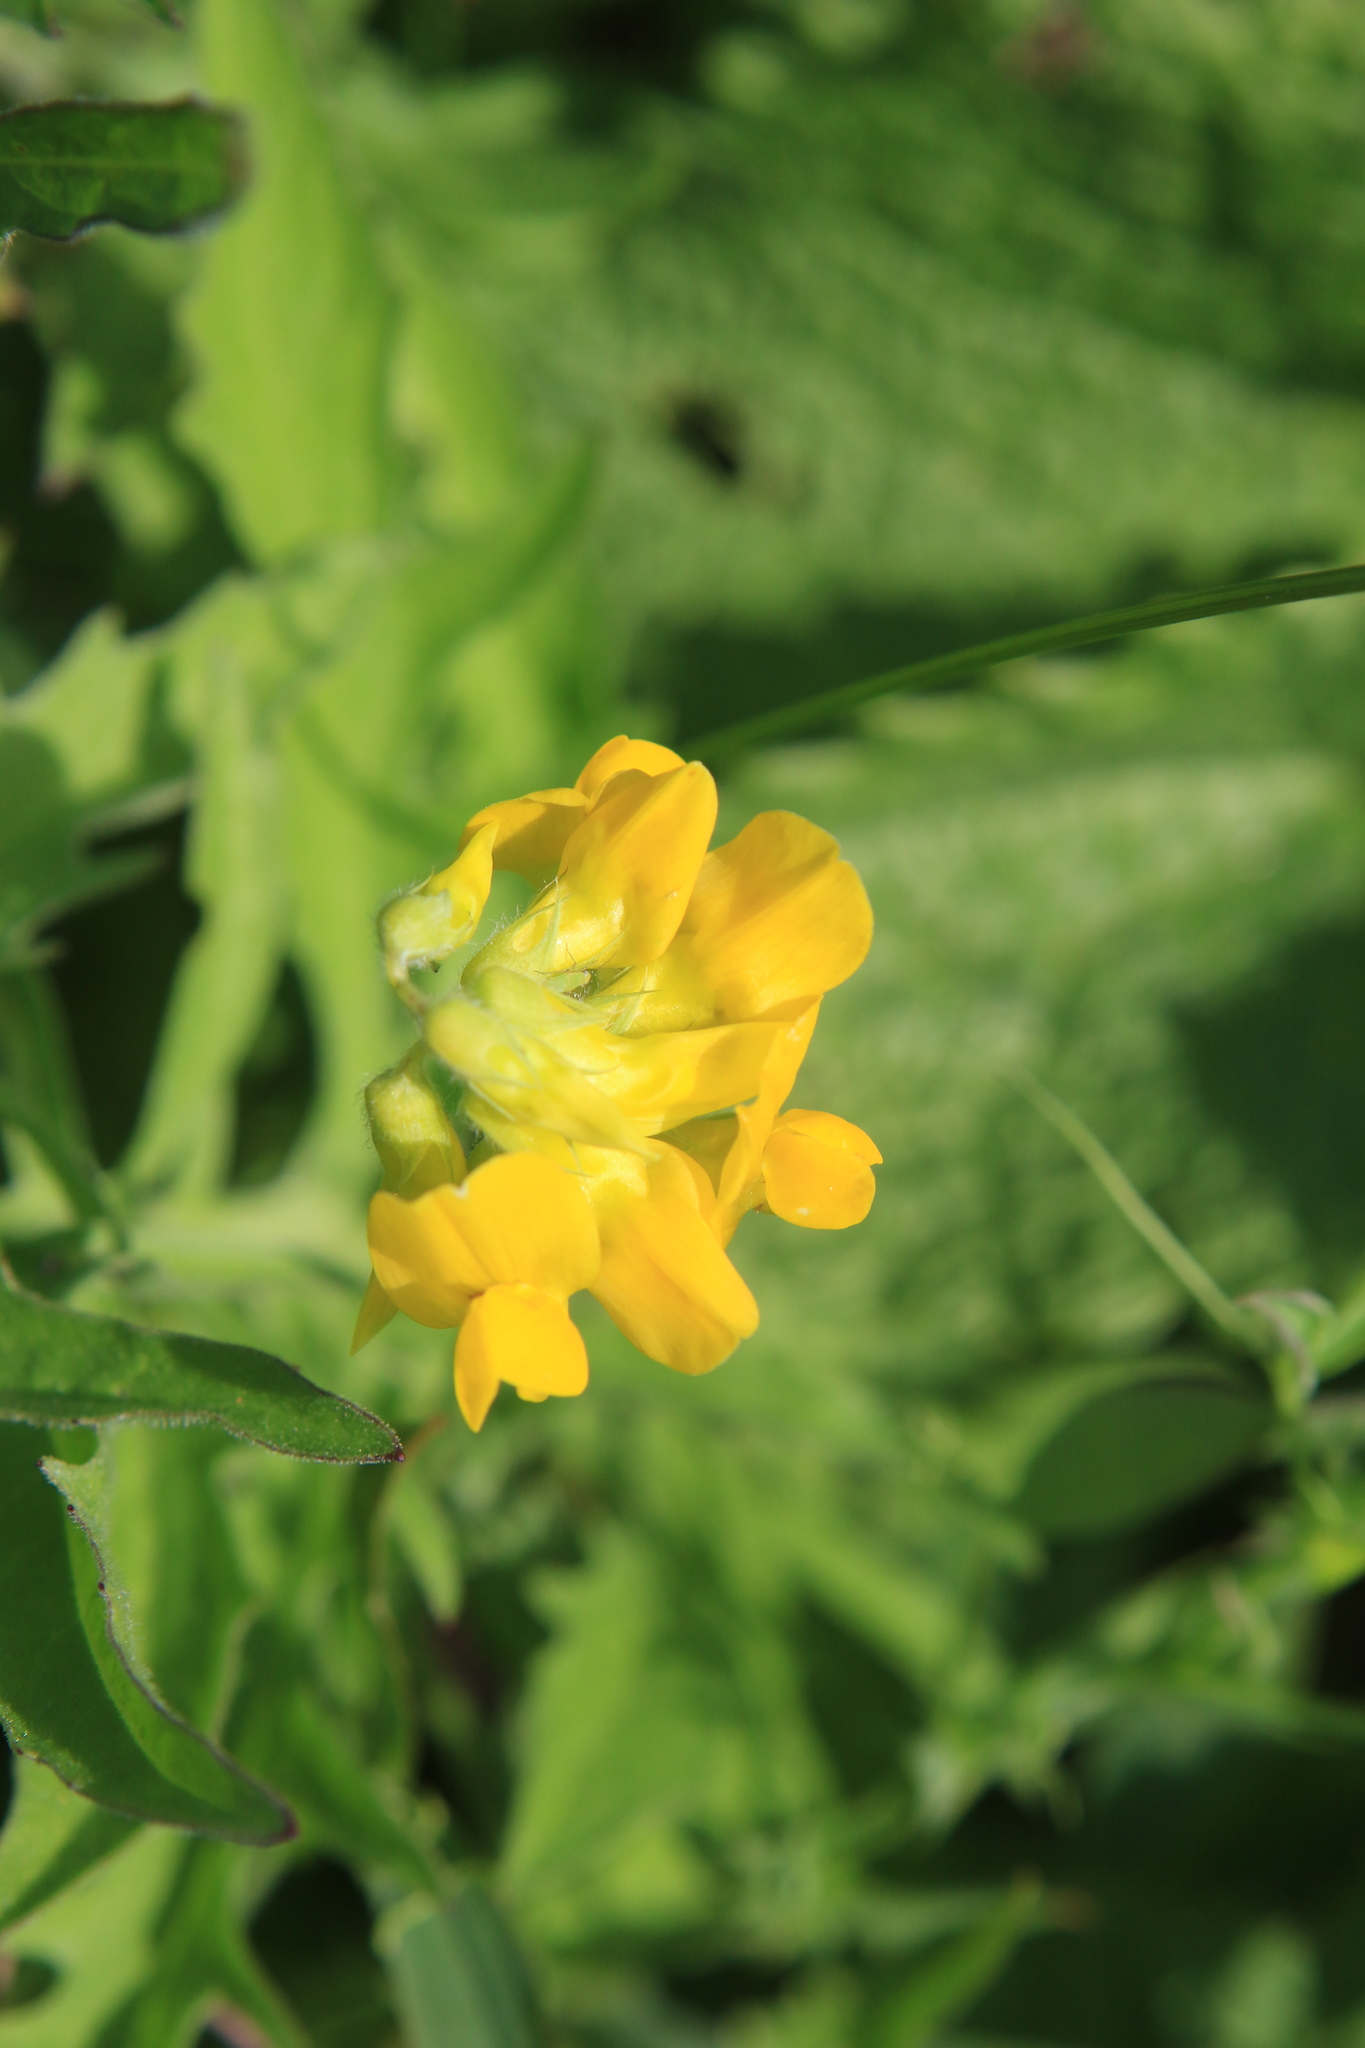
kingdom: Plantae
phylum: Tracheophyta
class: Magnoliopsida
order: Fabales
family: Fabaceae
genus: Lathyrus
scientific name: Lathyrus pratensis
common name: Meadow vetchling
